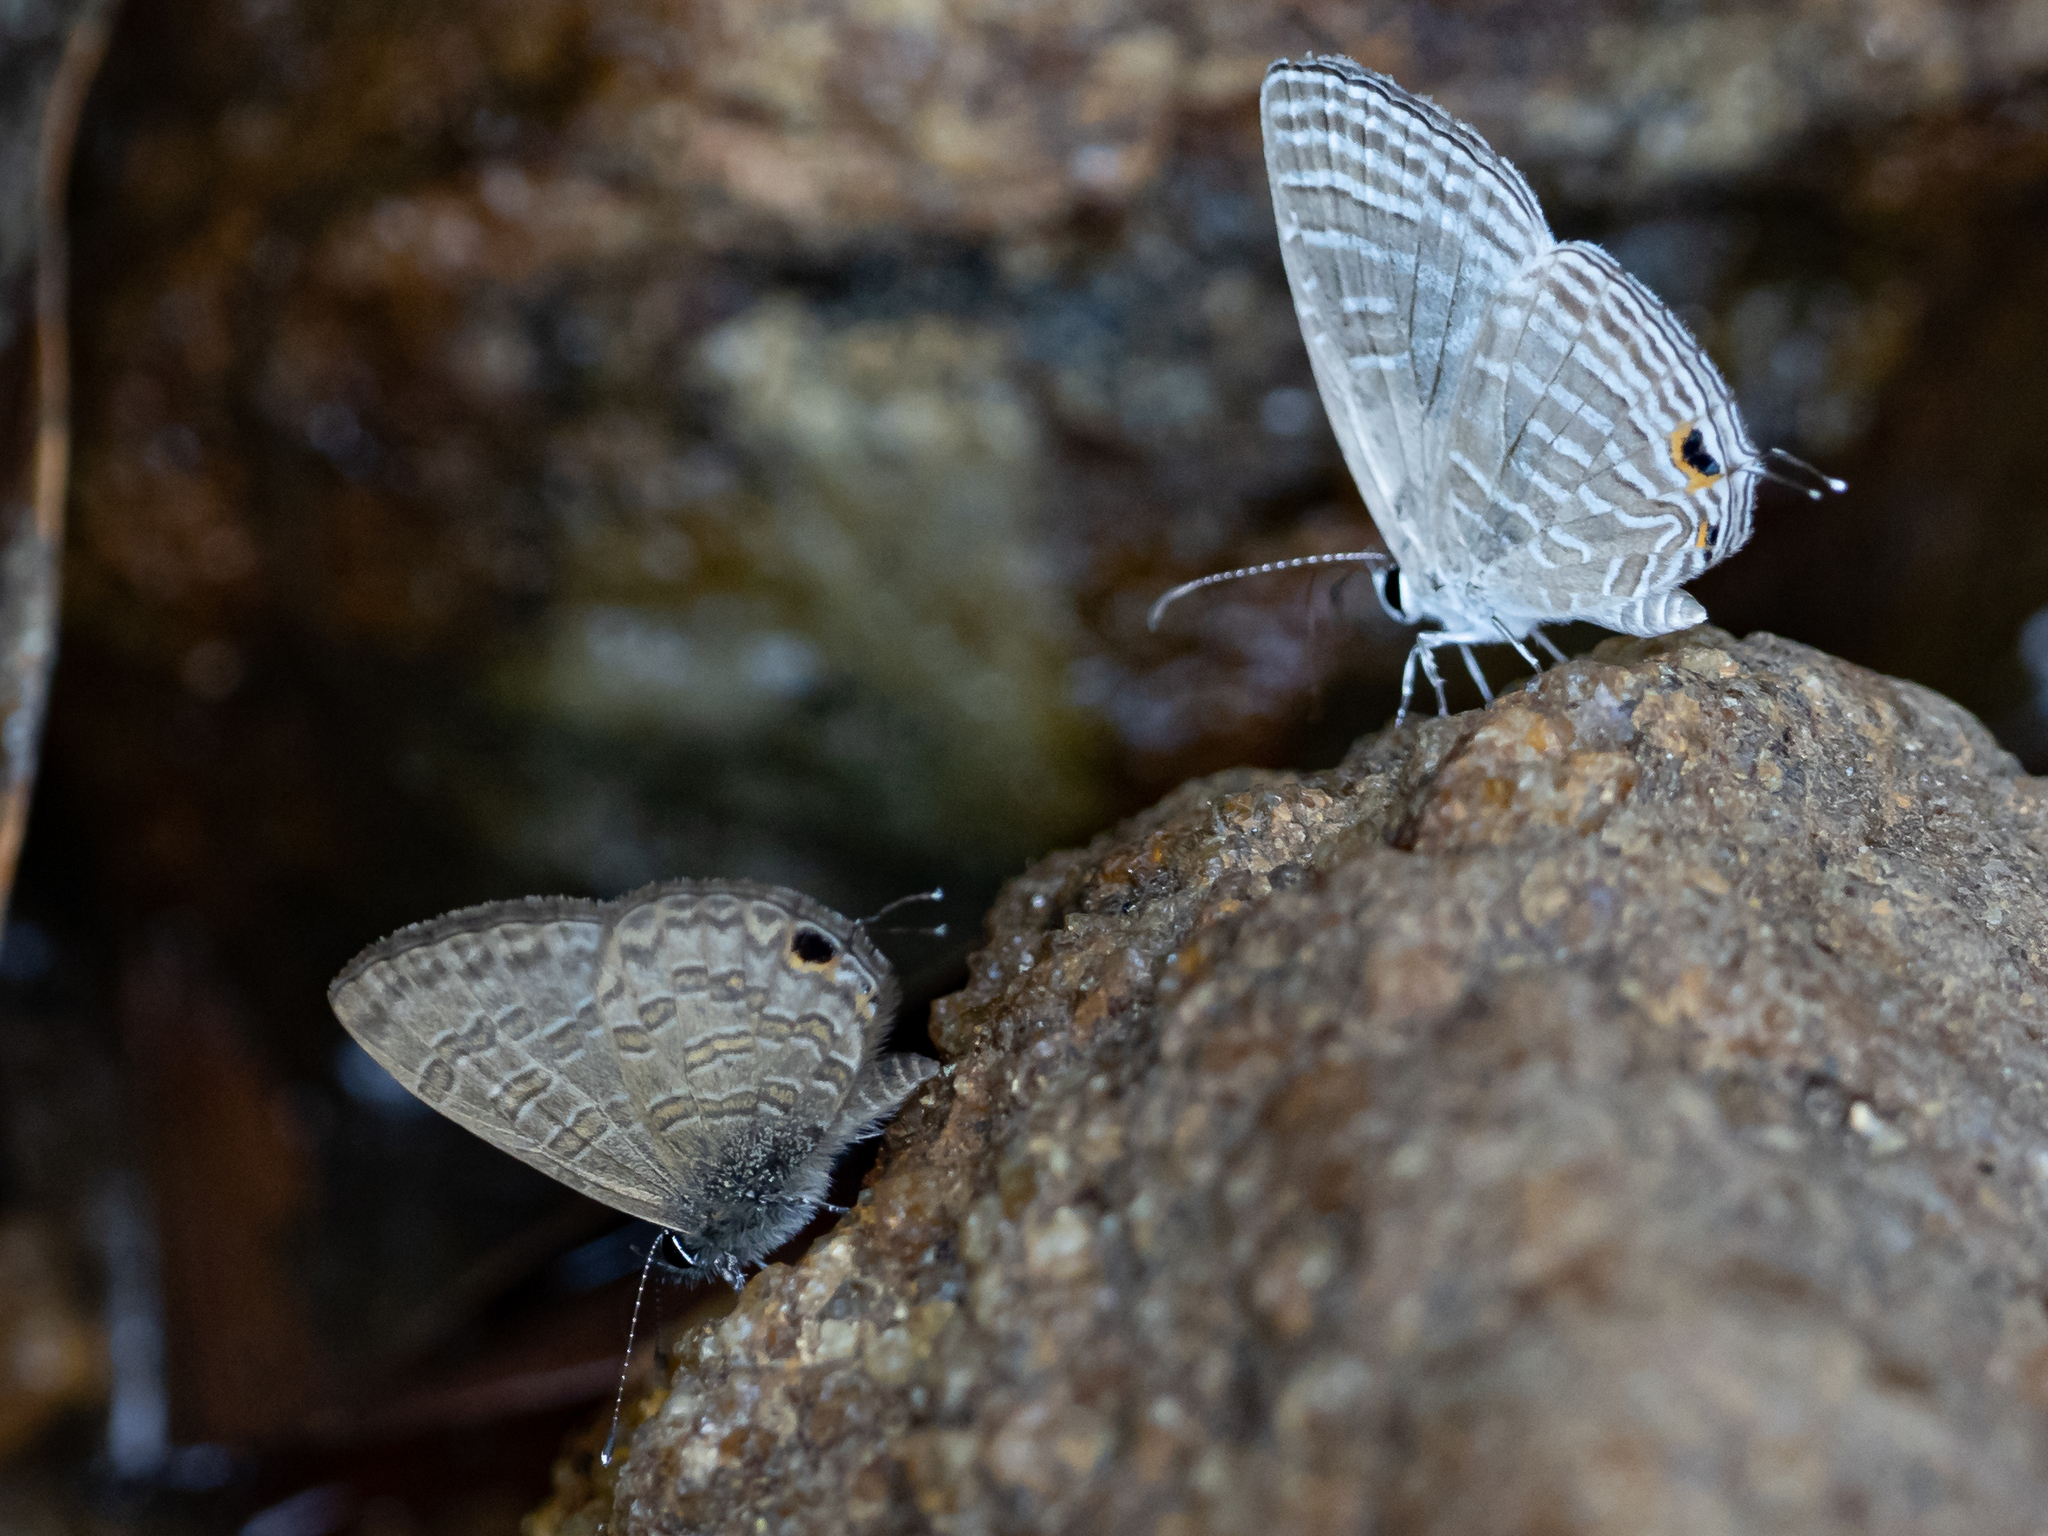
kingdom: Animalia
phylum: Arthropoda
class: Insecta
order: Lepidoptera
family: Lycaenidae
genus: Jamides
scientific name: Jamides celeno
